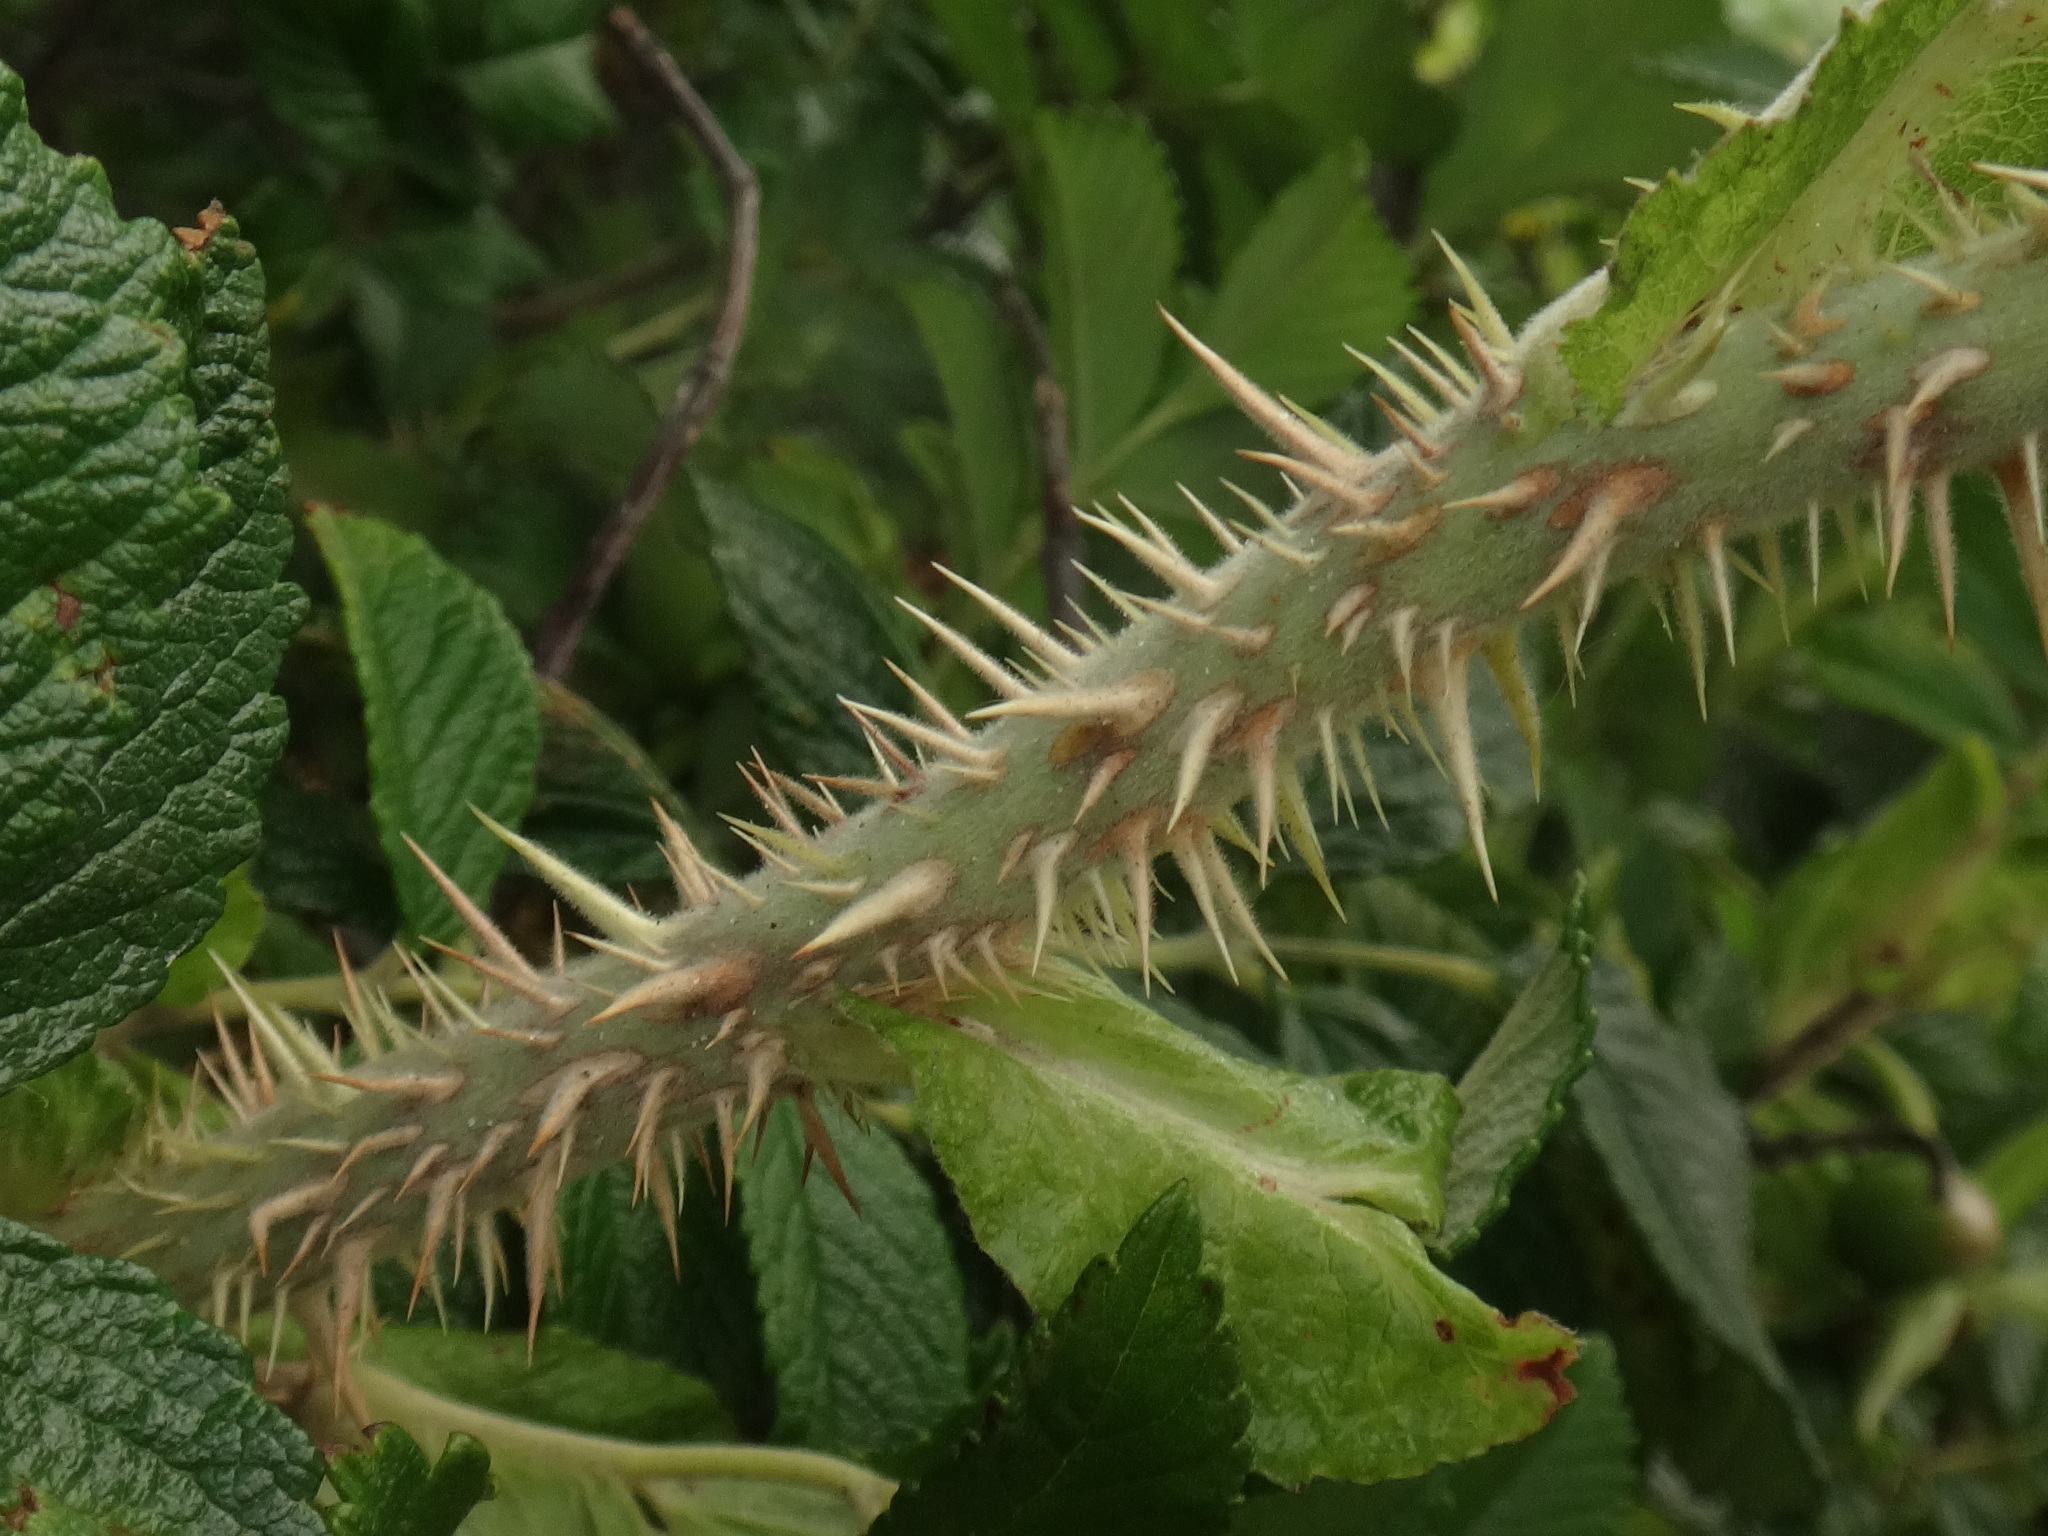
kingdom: Plantae
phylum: Tracheophyta
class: Magnoliopsida
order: Rosales
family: Rosaceae
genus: Rosa
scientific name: Rosa rugosa
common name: Japanese rose
